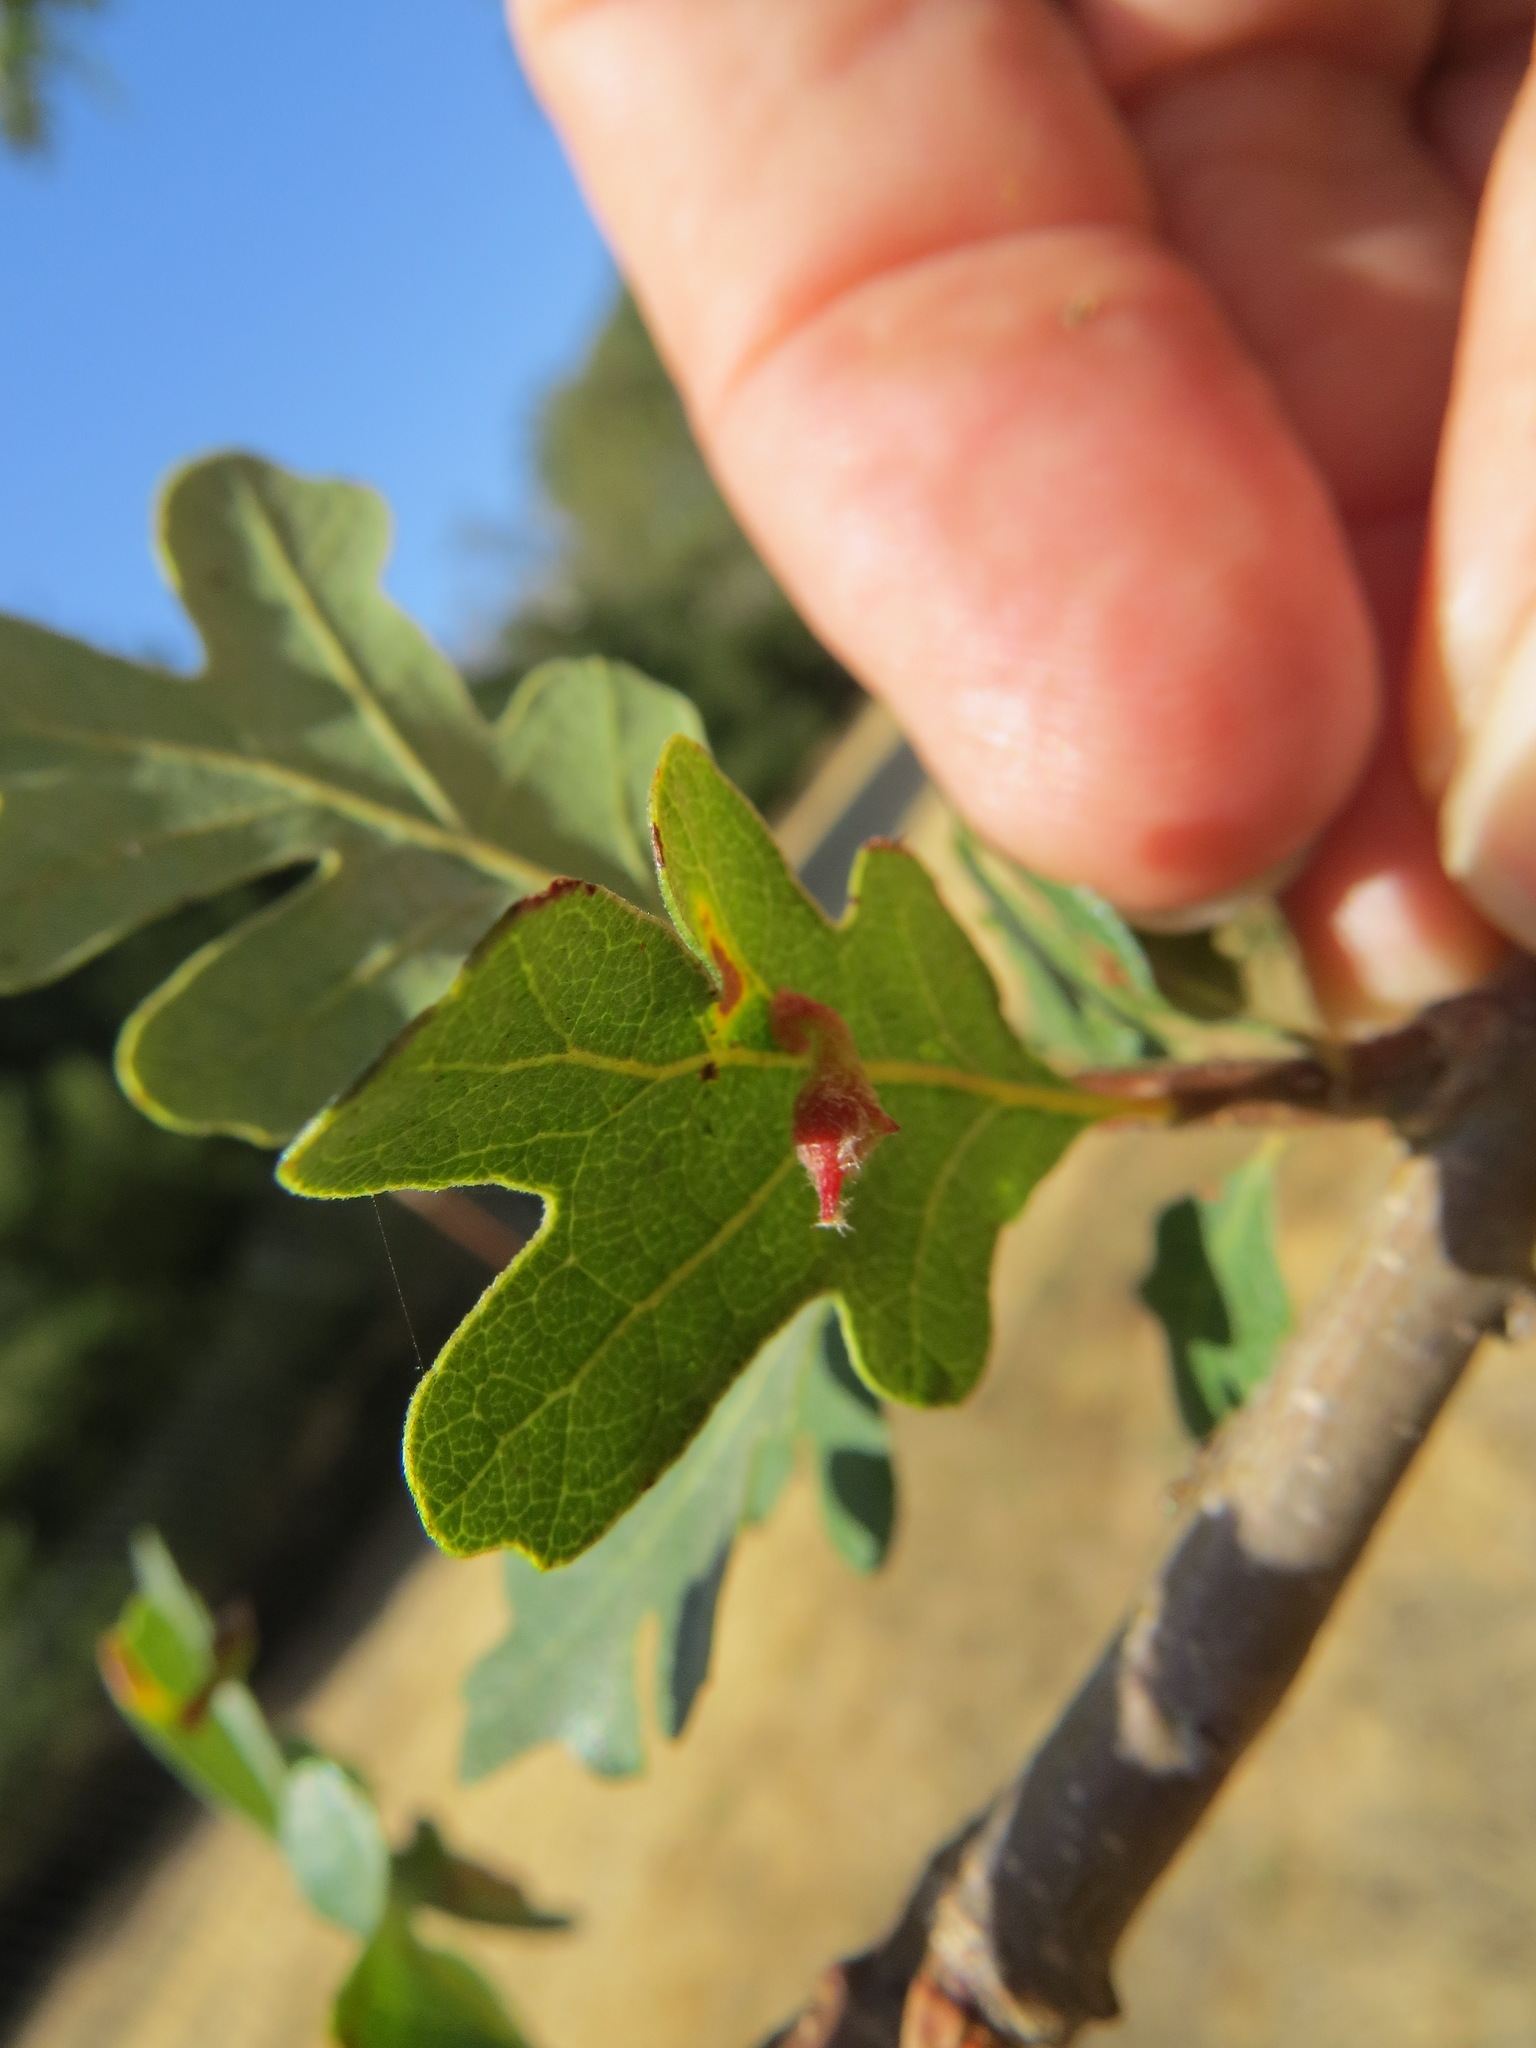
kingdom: Animalia
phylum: Arthropoda
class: Insecta
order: Hymenoptera
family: Cynipidae
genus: Atrusca
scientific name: Atrusca
